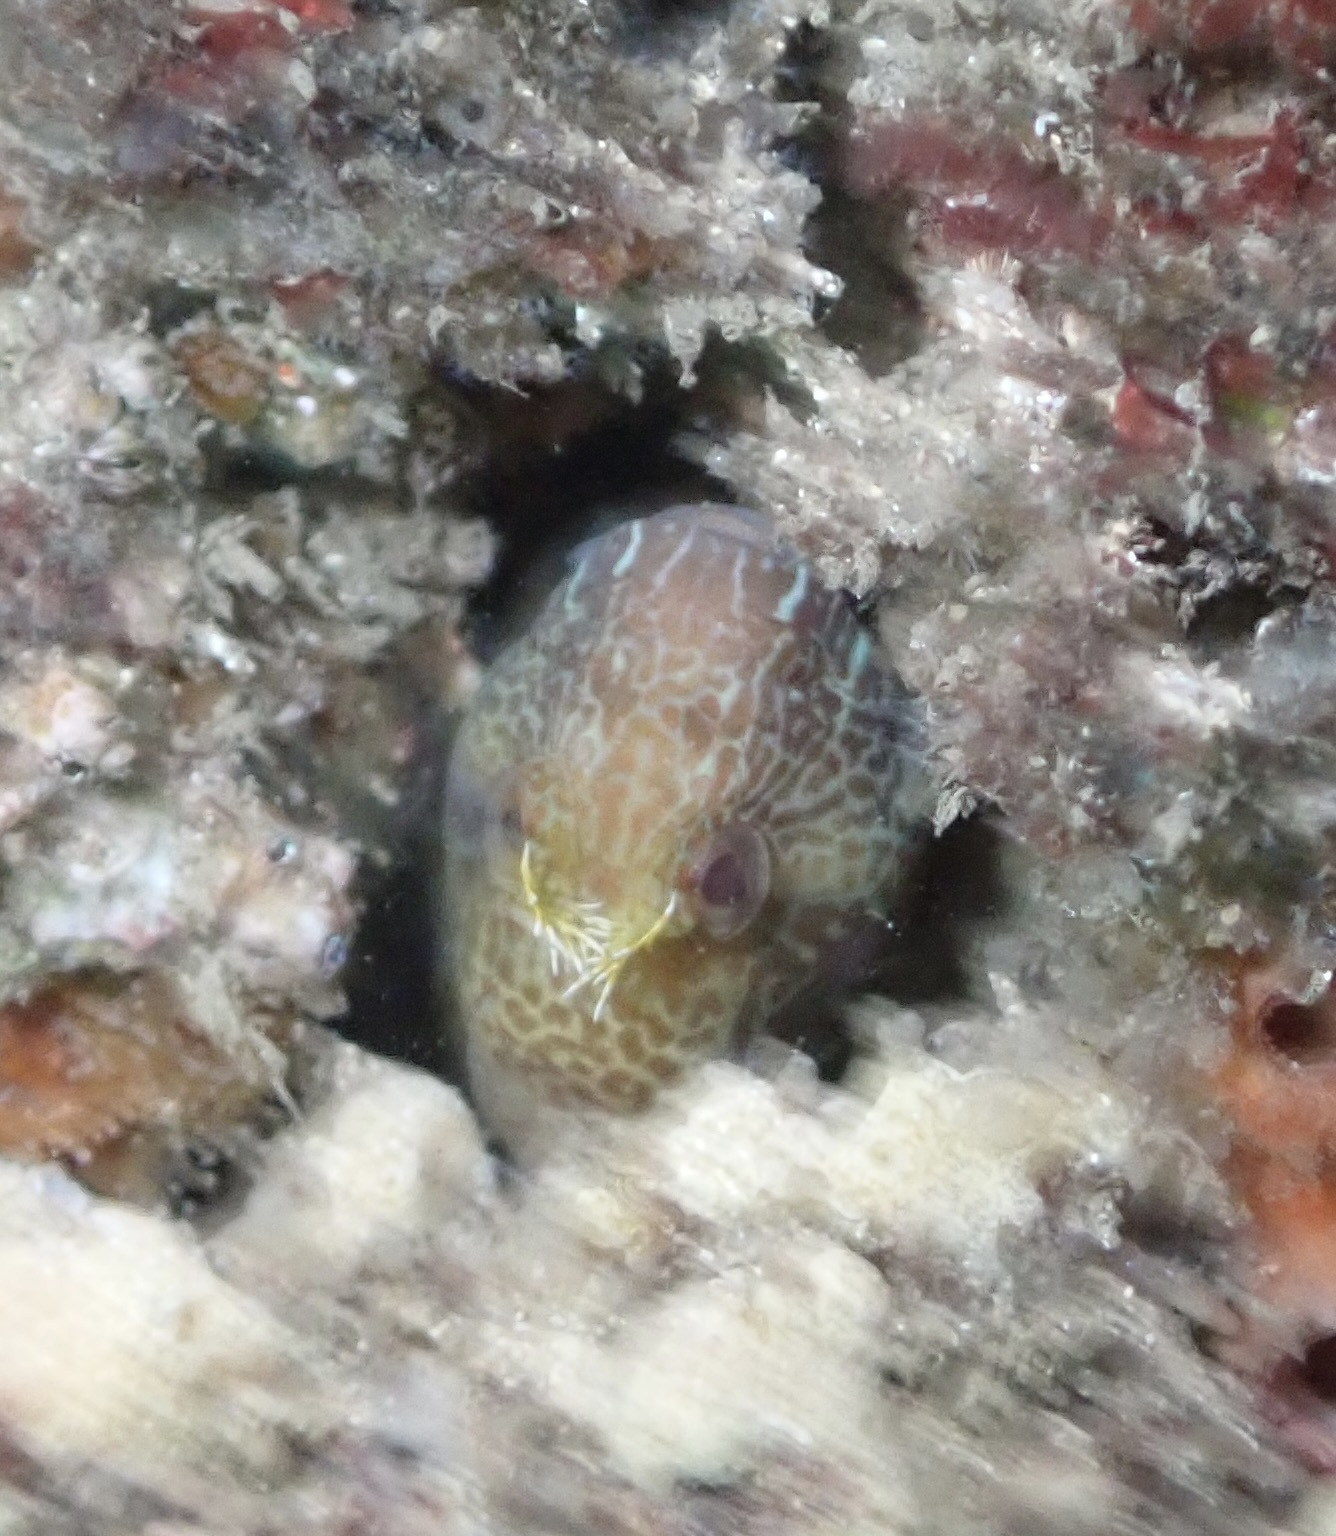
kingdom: Animalia
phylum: Chordata
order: Perciformes
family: Blenniidae
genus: Parablennius
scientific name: Parablennius intermedius
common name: Horned blenny
